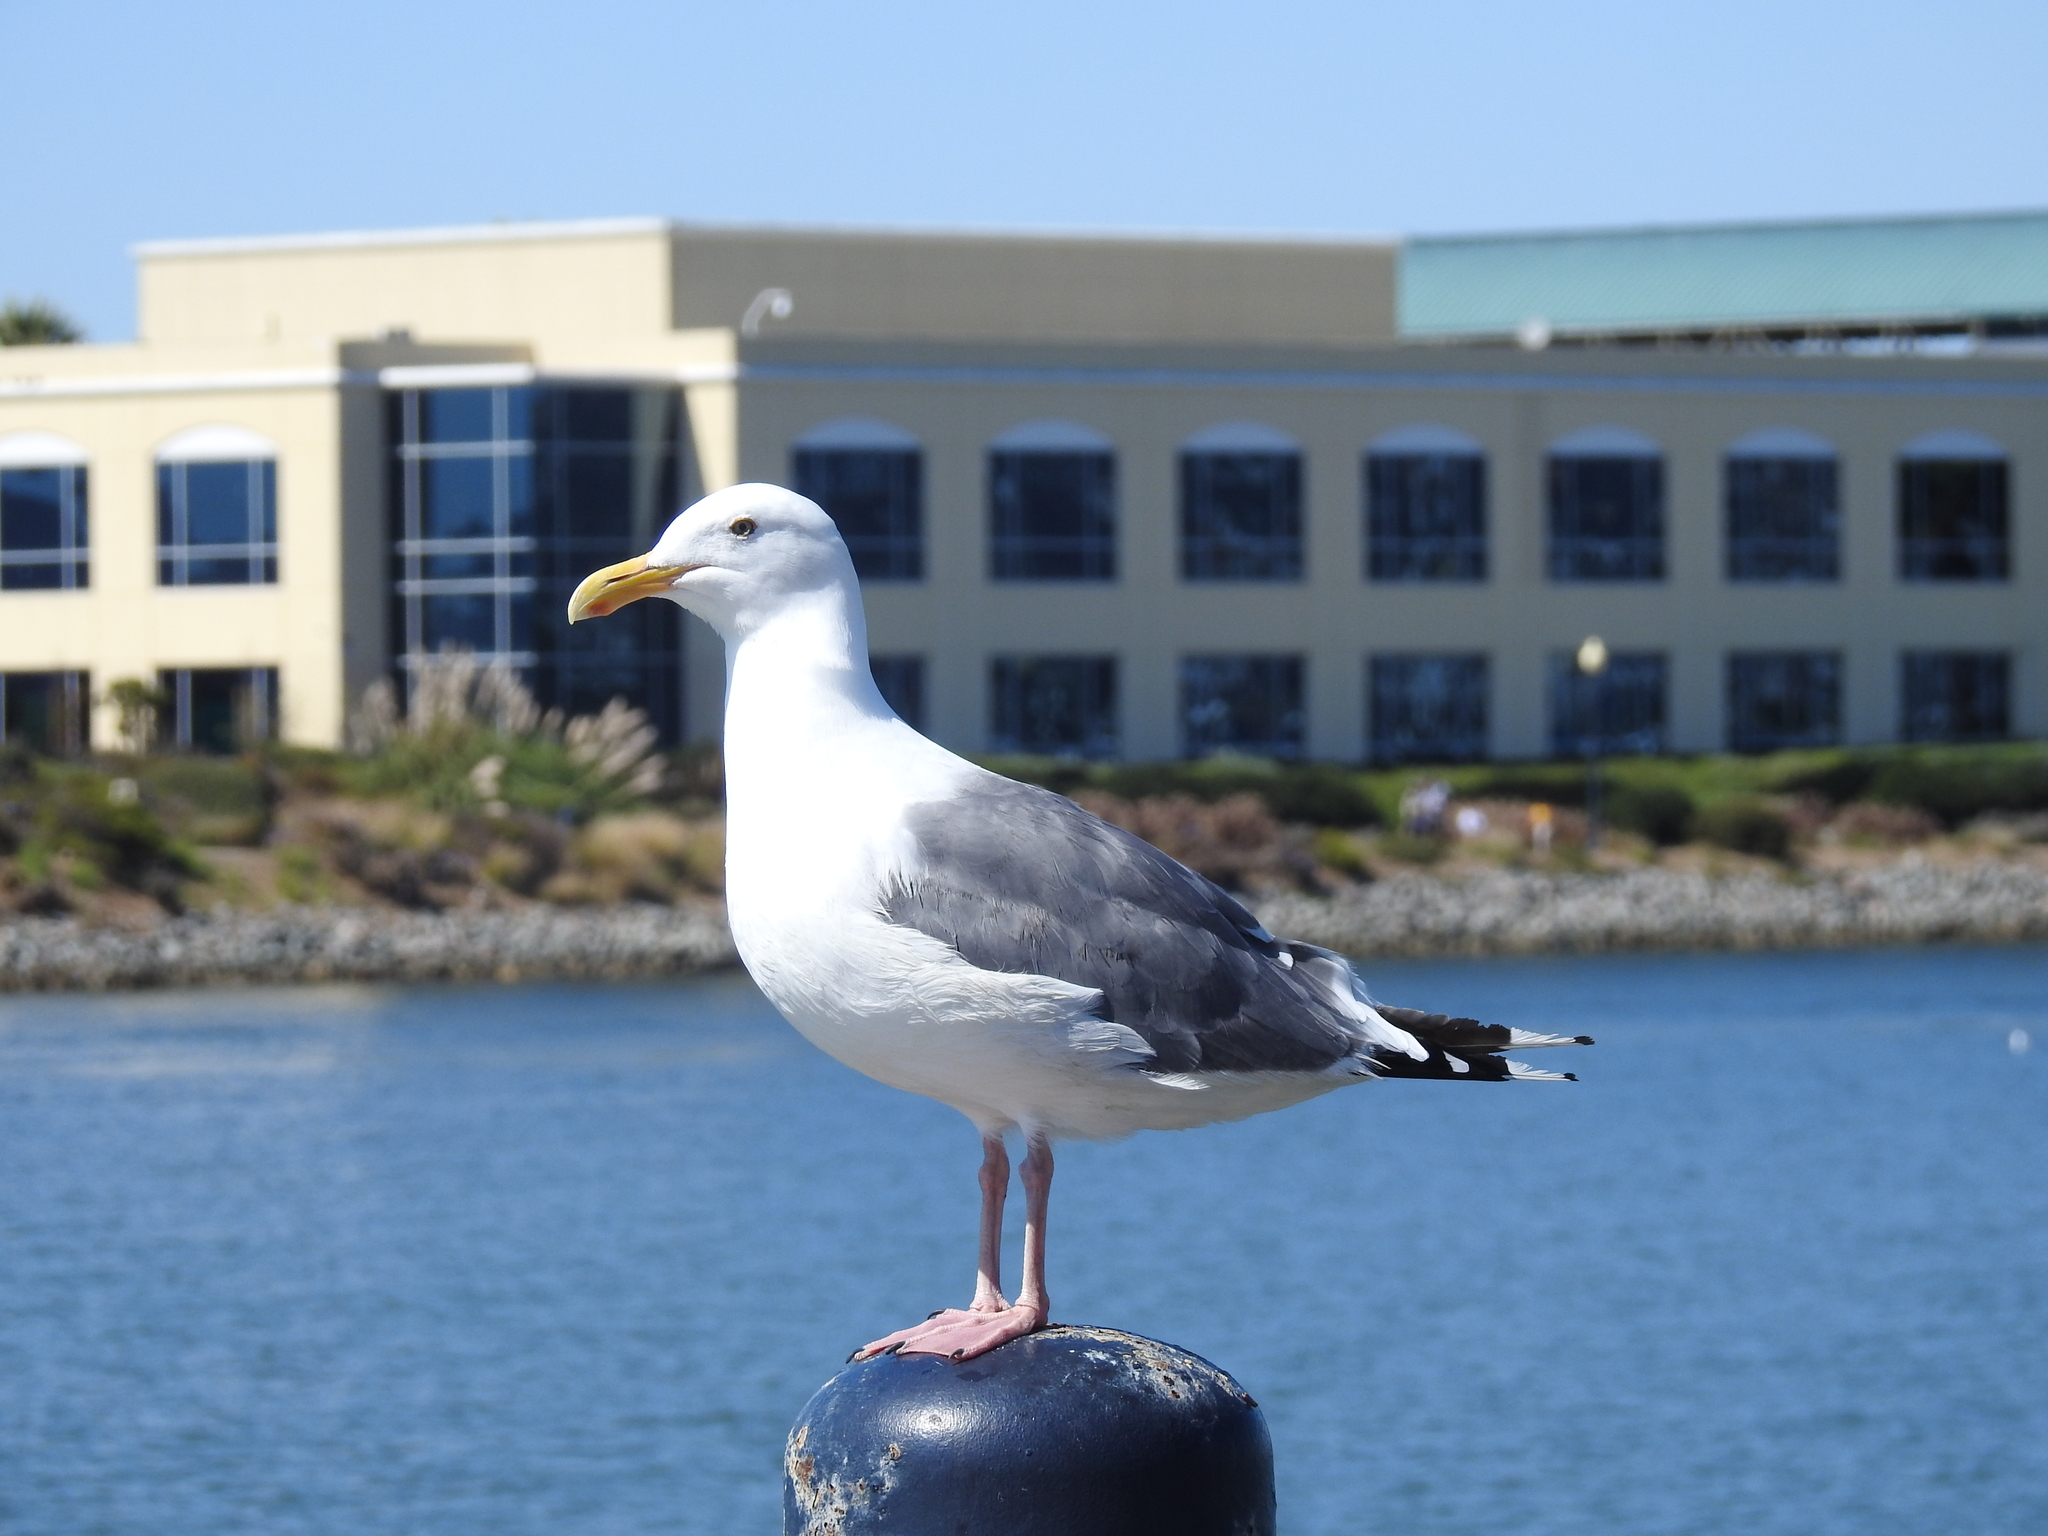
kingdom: Animalia
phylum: Chordata
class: Aves
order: Charadriiformes
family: Laridae
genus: Larus
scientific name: Larus occidentalis
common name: Western gull
